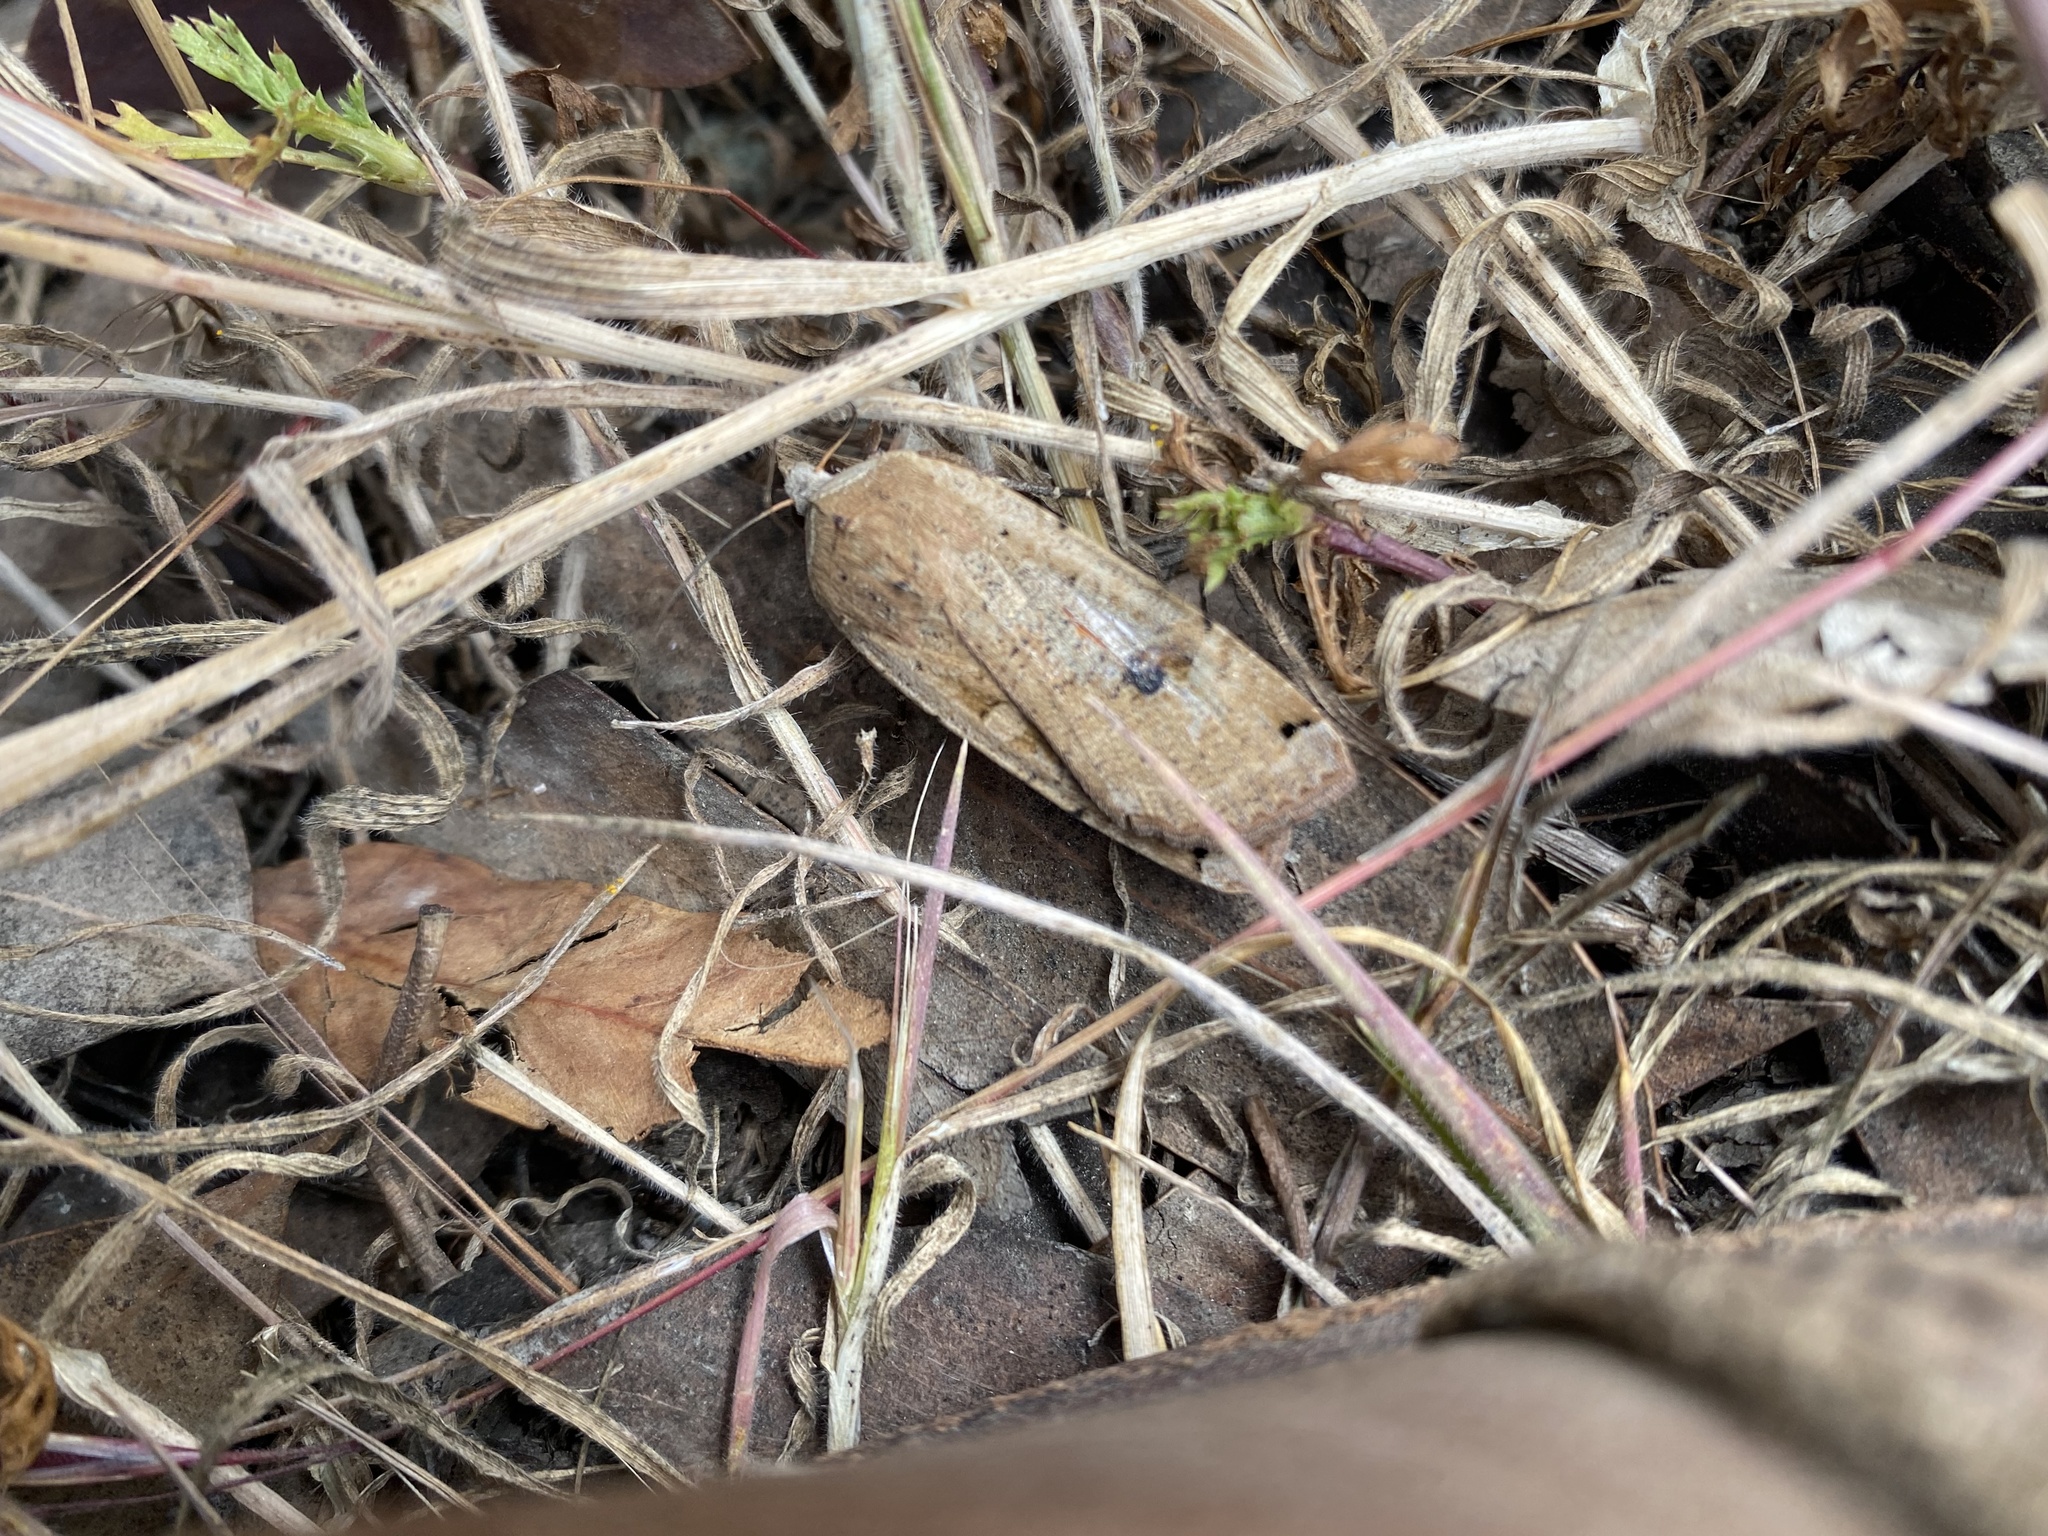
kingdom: Animalia
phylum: Arthropoda
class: Insecta
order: Lepidoptera
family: Noctuidae
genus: Noctua
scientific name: Noctua pronuba
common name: Large yellow underwing
